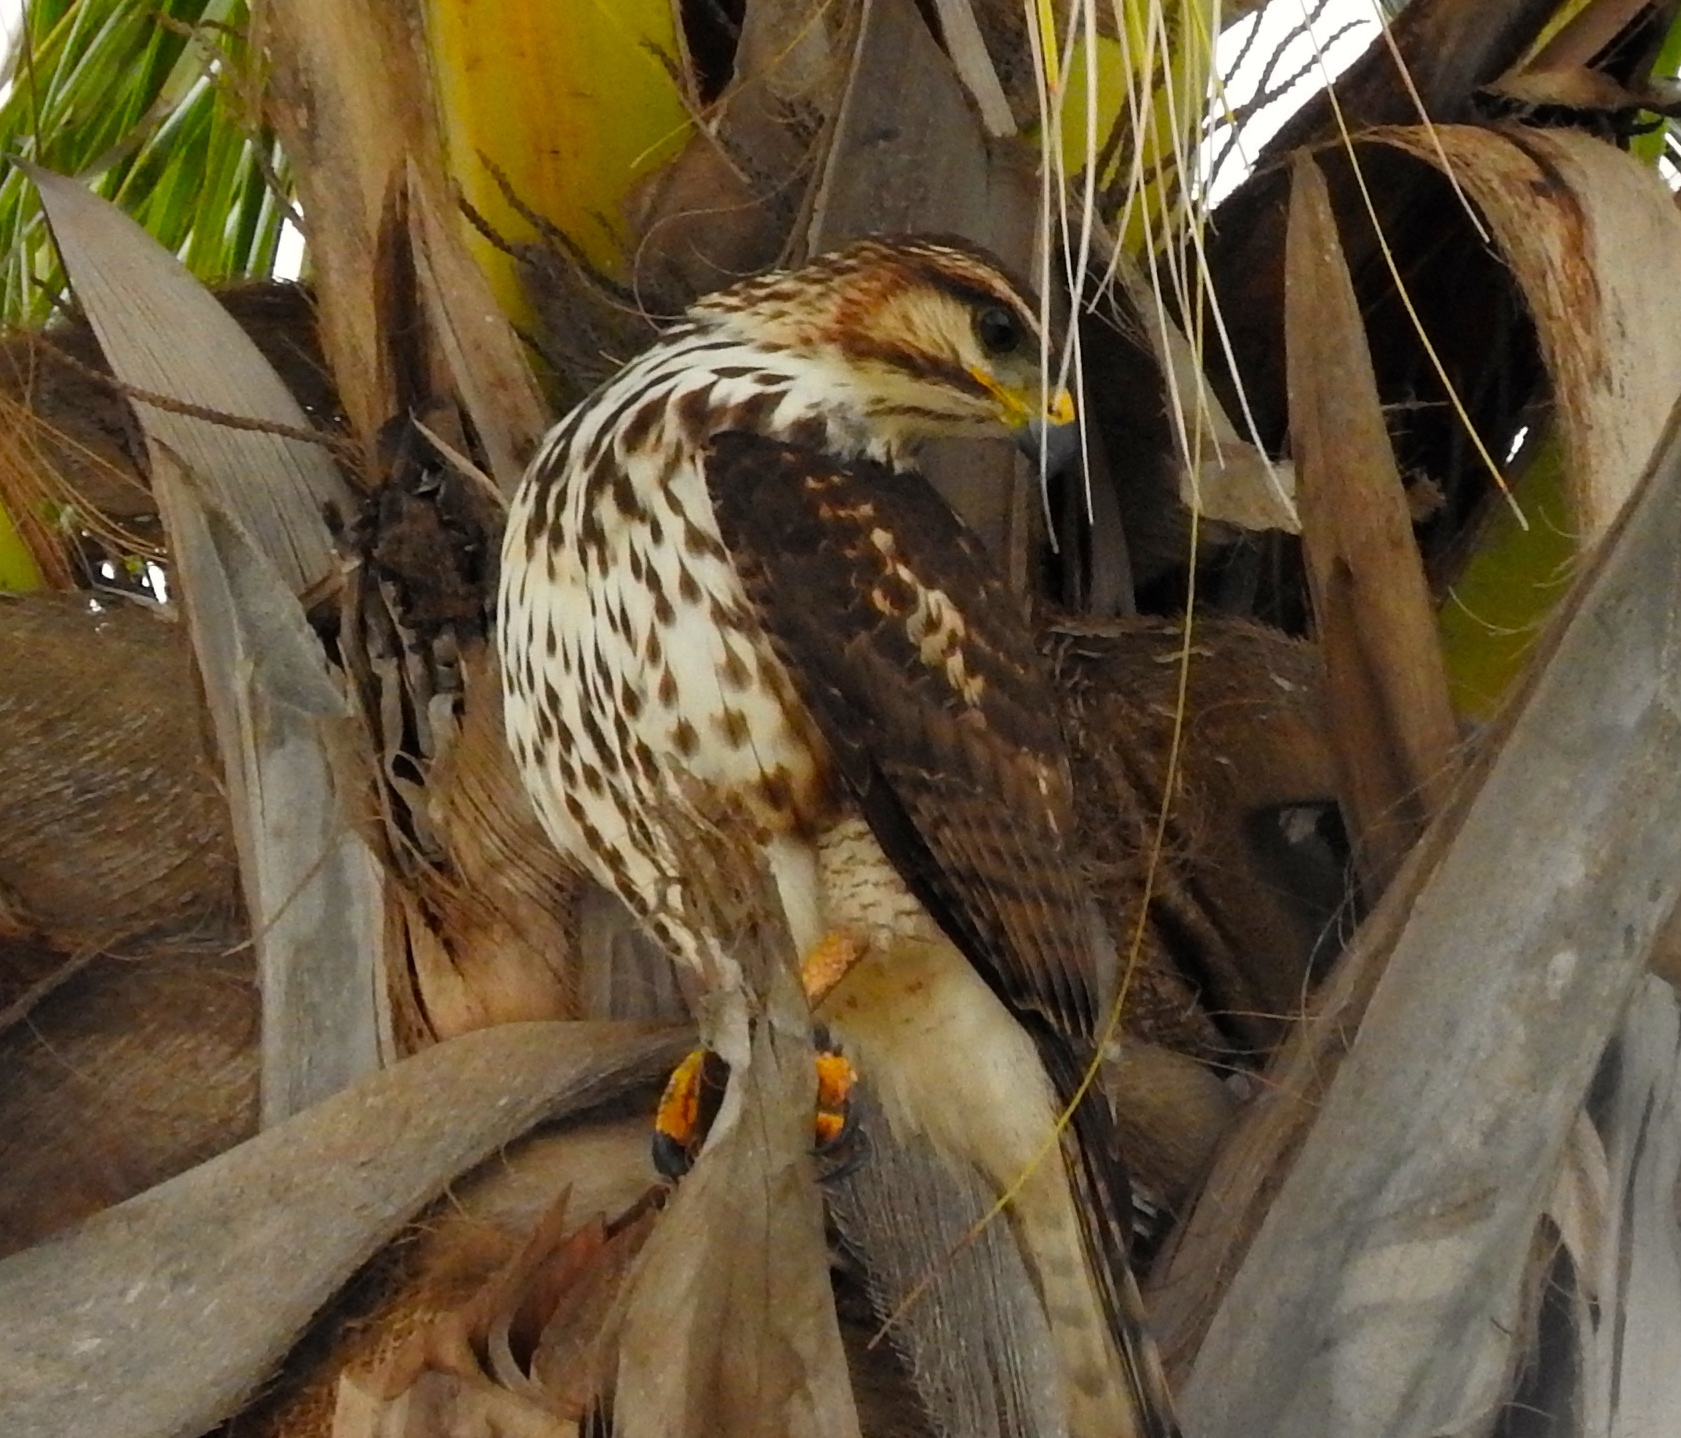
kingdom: Animalia
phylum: Chordata
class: Aves
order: Accipitriformes
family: Accipitridae
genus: Buteo
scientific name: Buteo nitidus
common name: Grey-lined hawk
